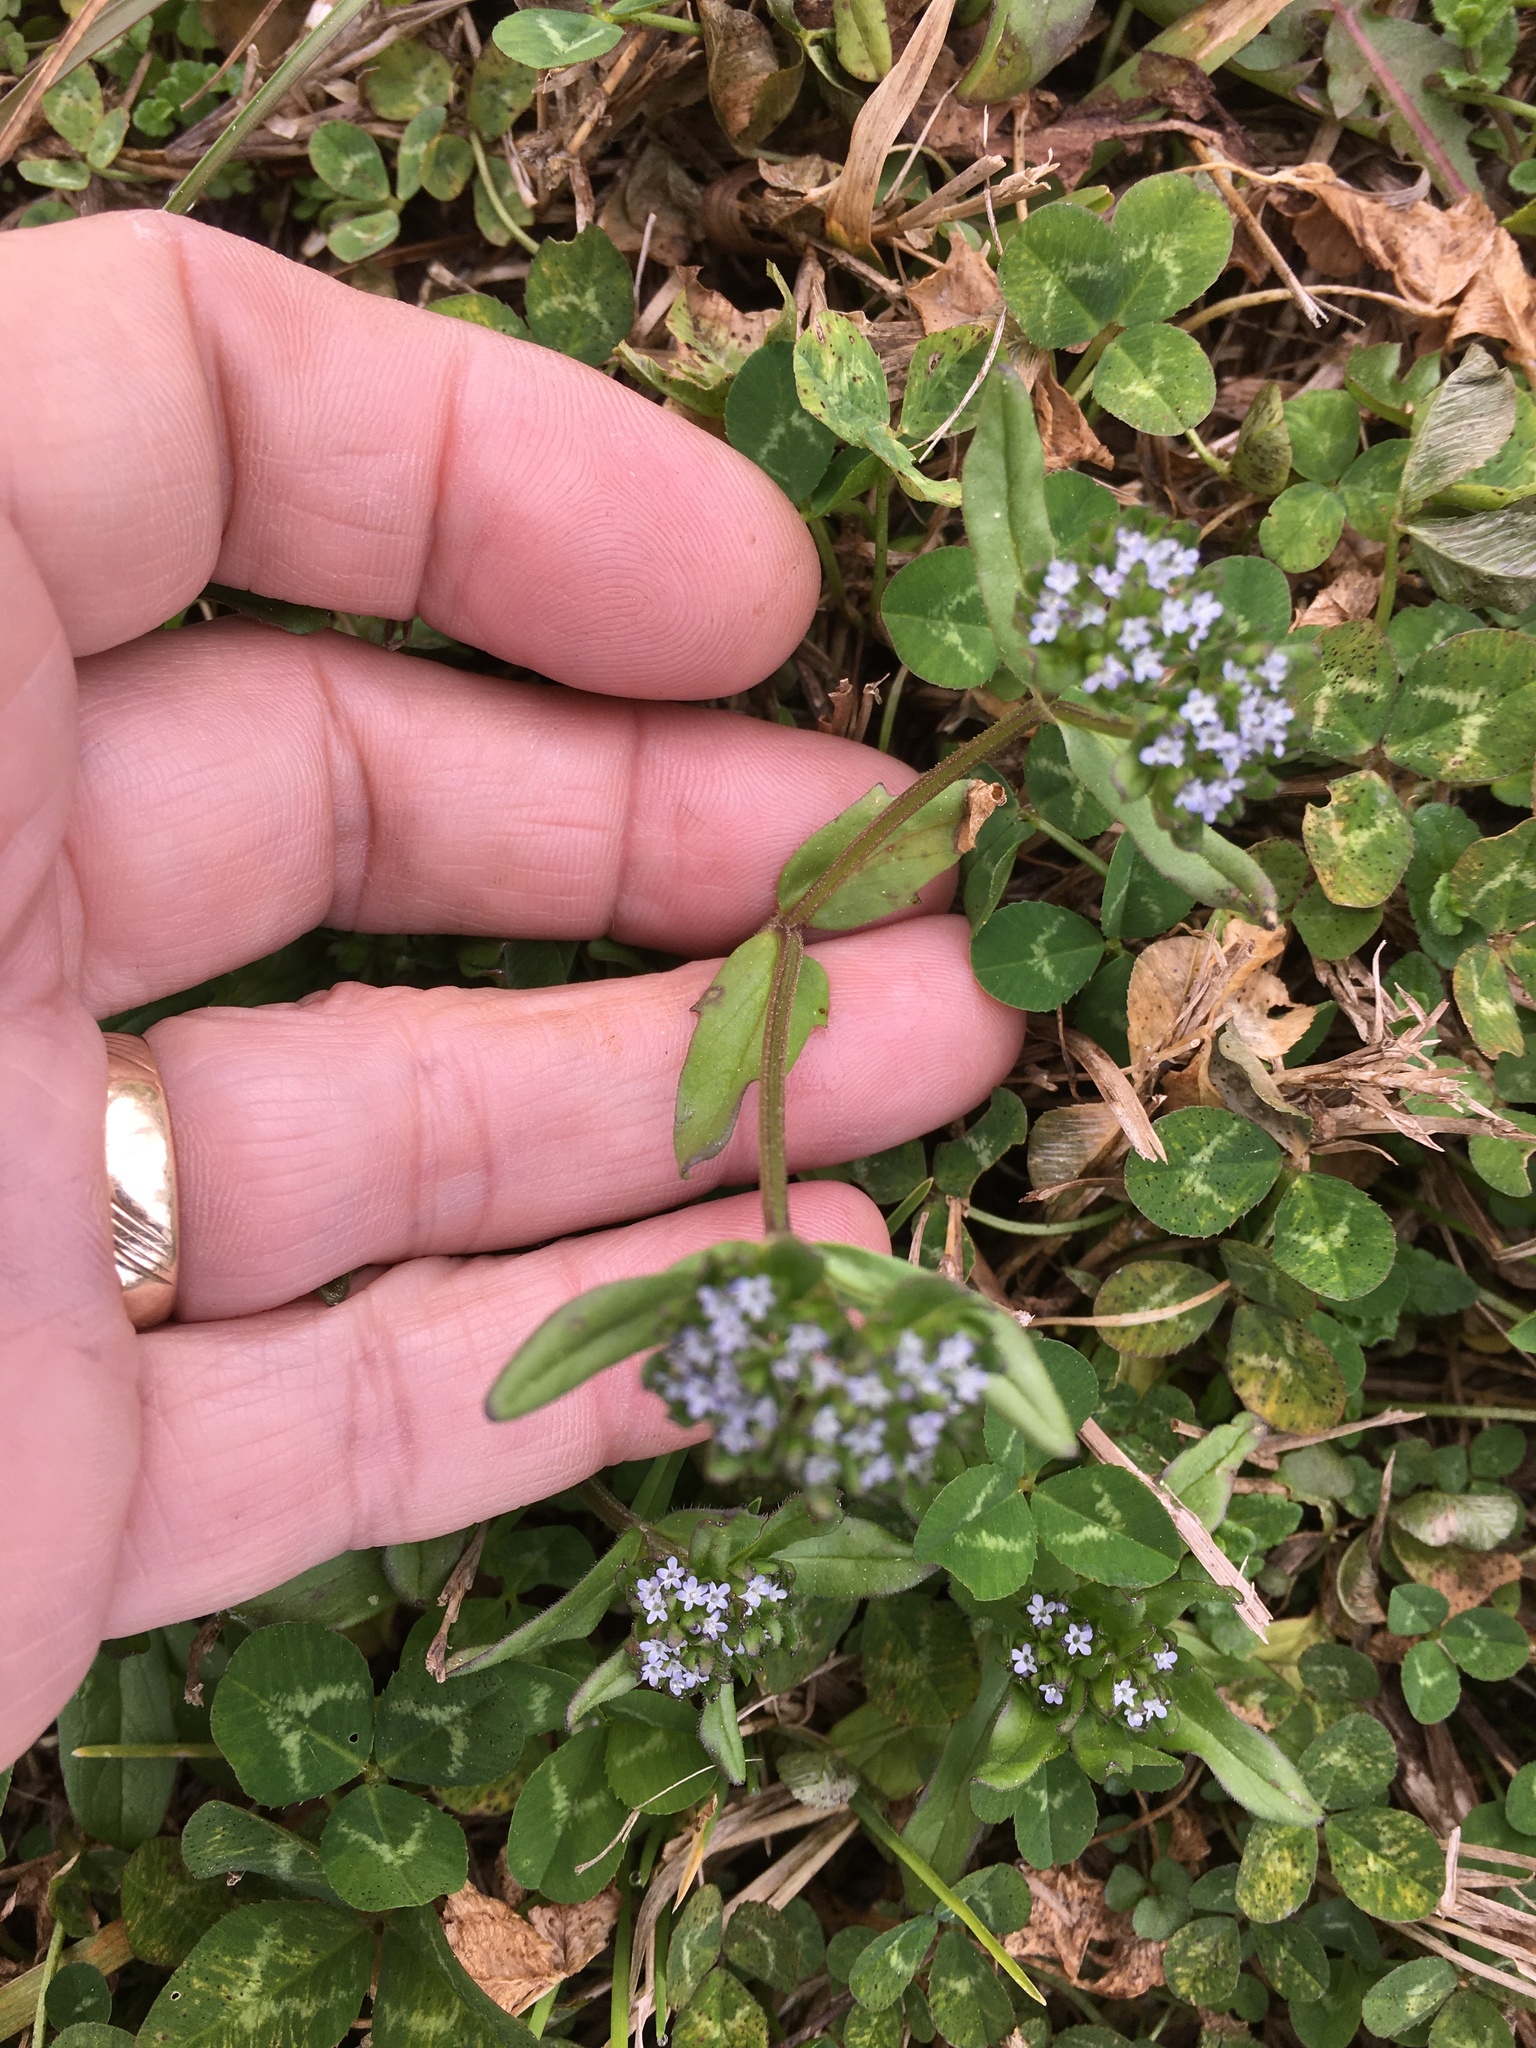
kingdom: Plantae
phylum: Tracheophyta
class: Magnoliopsida
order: Dipsacales
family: Caprifoliaceae
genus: Valerianella
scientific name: Valerianella locusta
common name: Common cornsalad
